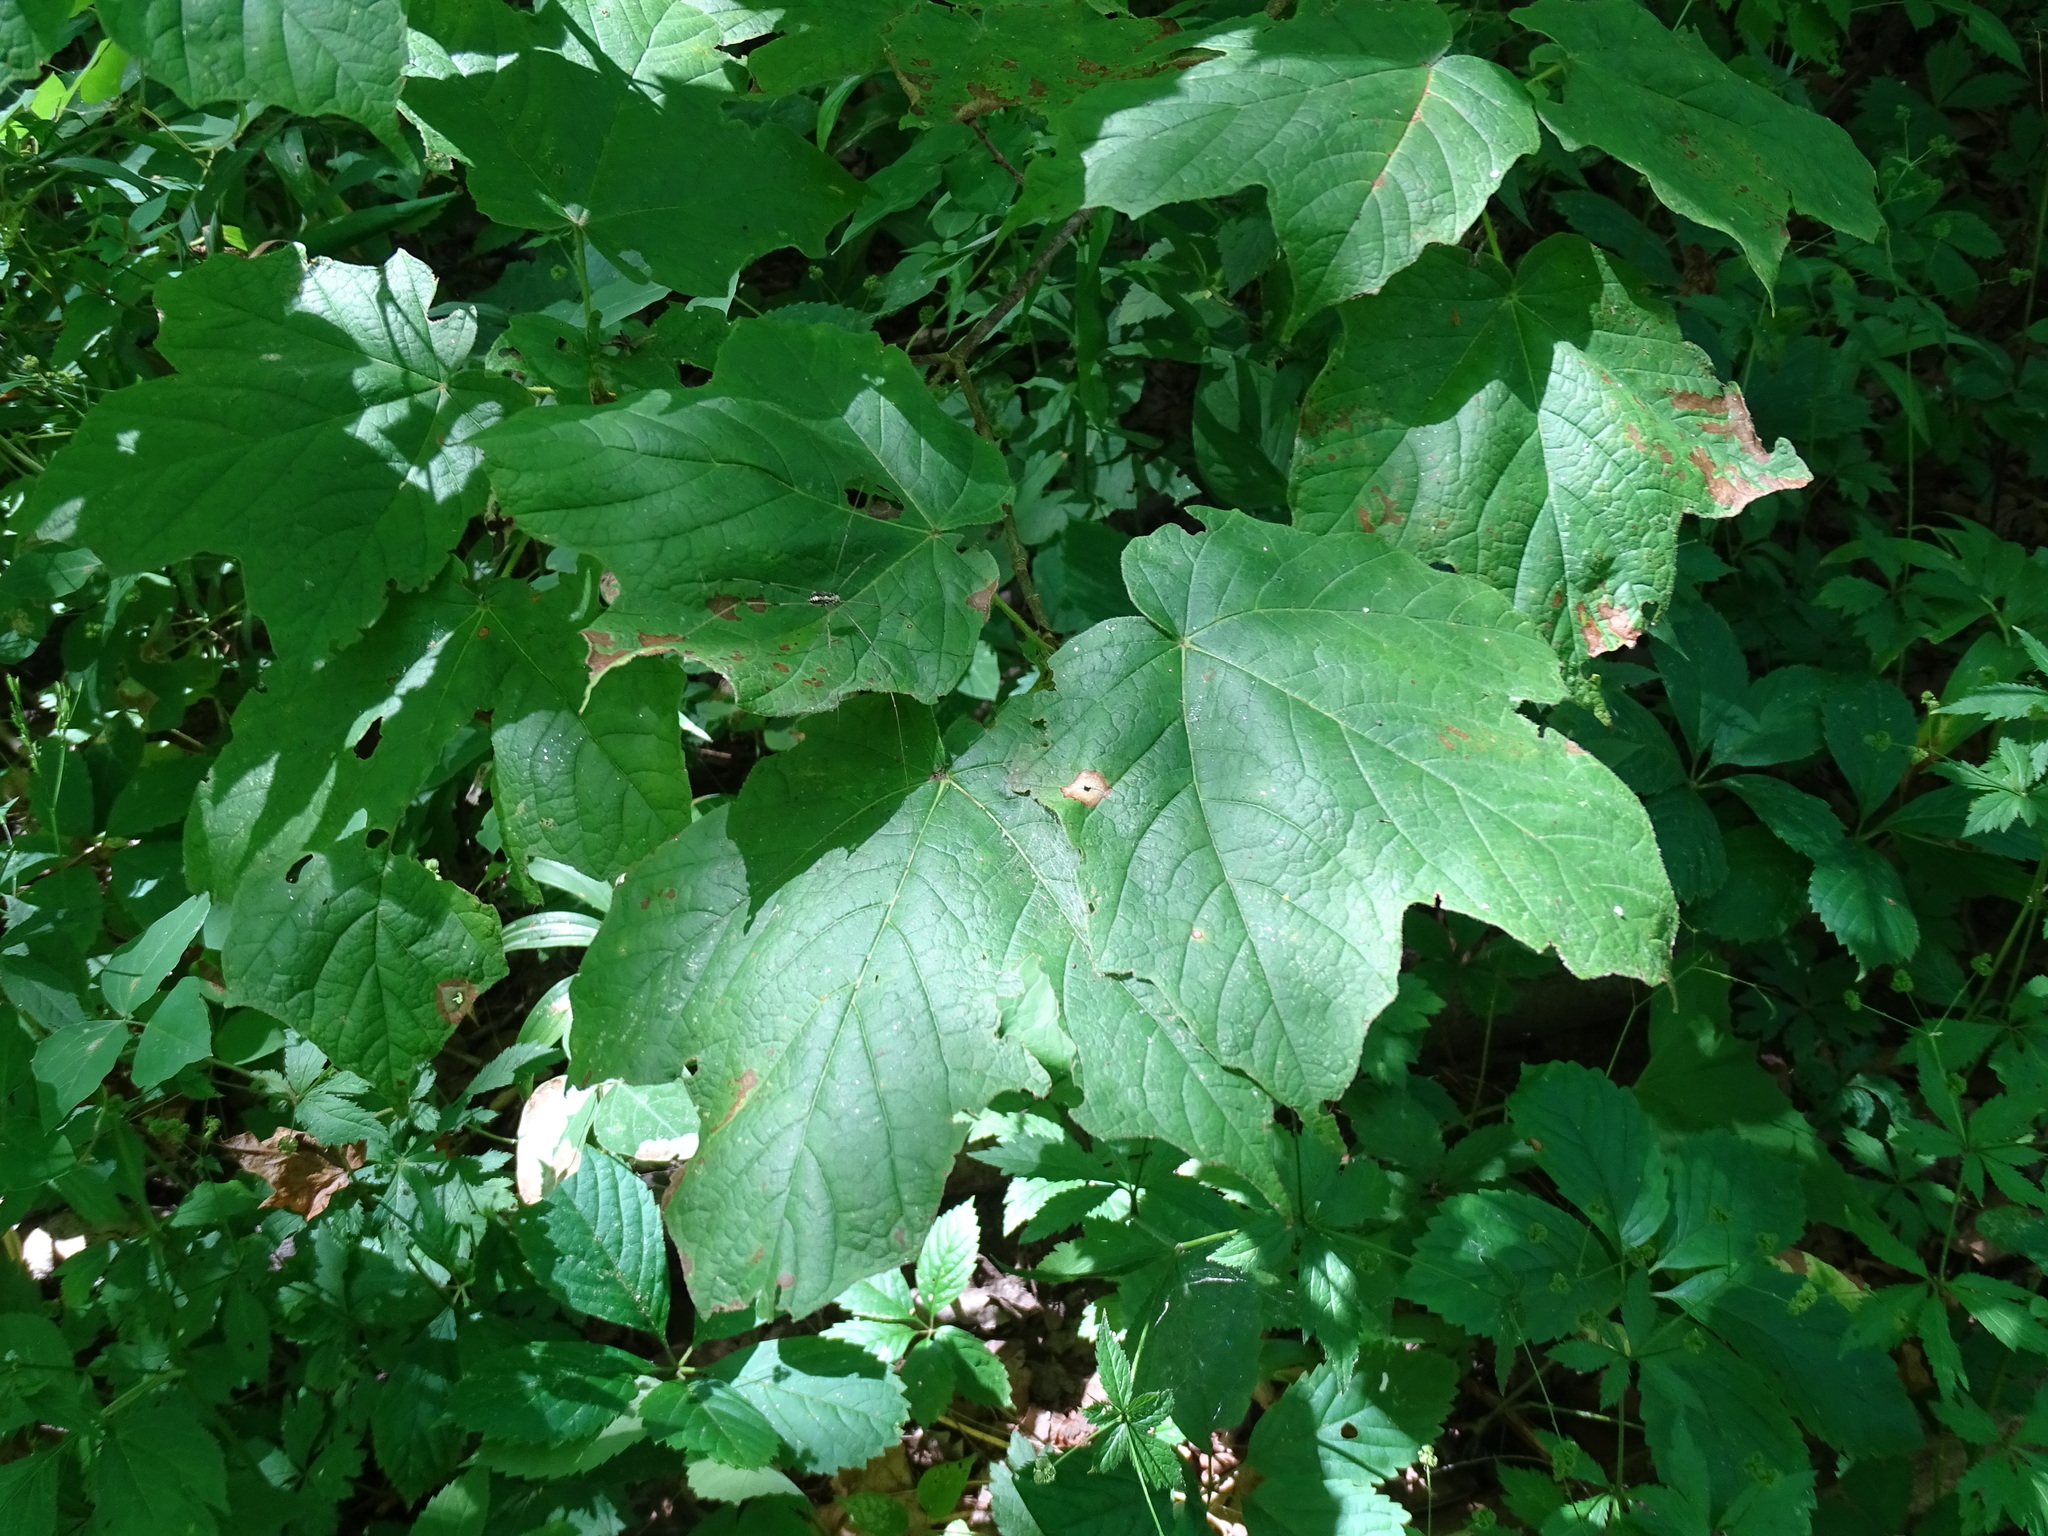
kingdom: Plantae
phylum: Tracheophyta
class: Magnoliopsida
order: Sapindales
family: Sapindaceae
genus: Acer
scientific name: Acer nigrum
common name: Black maple
